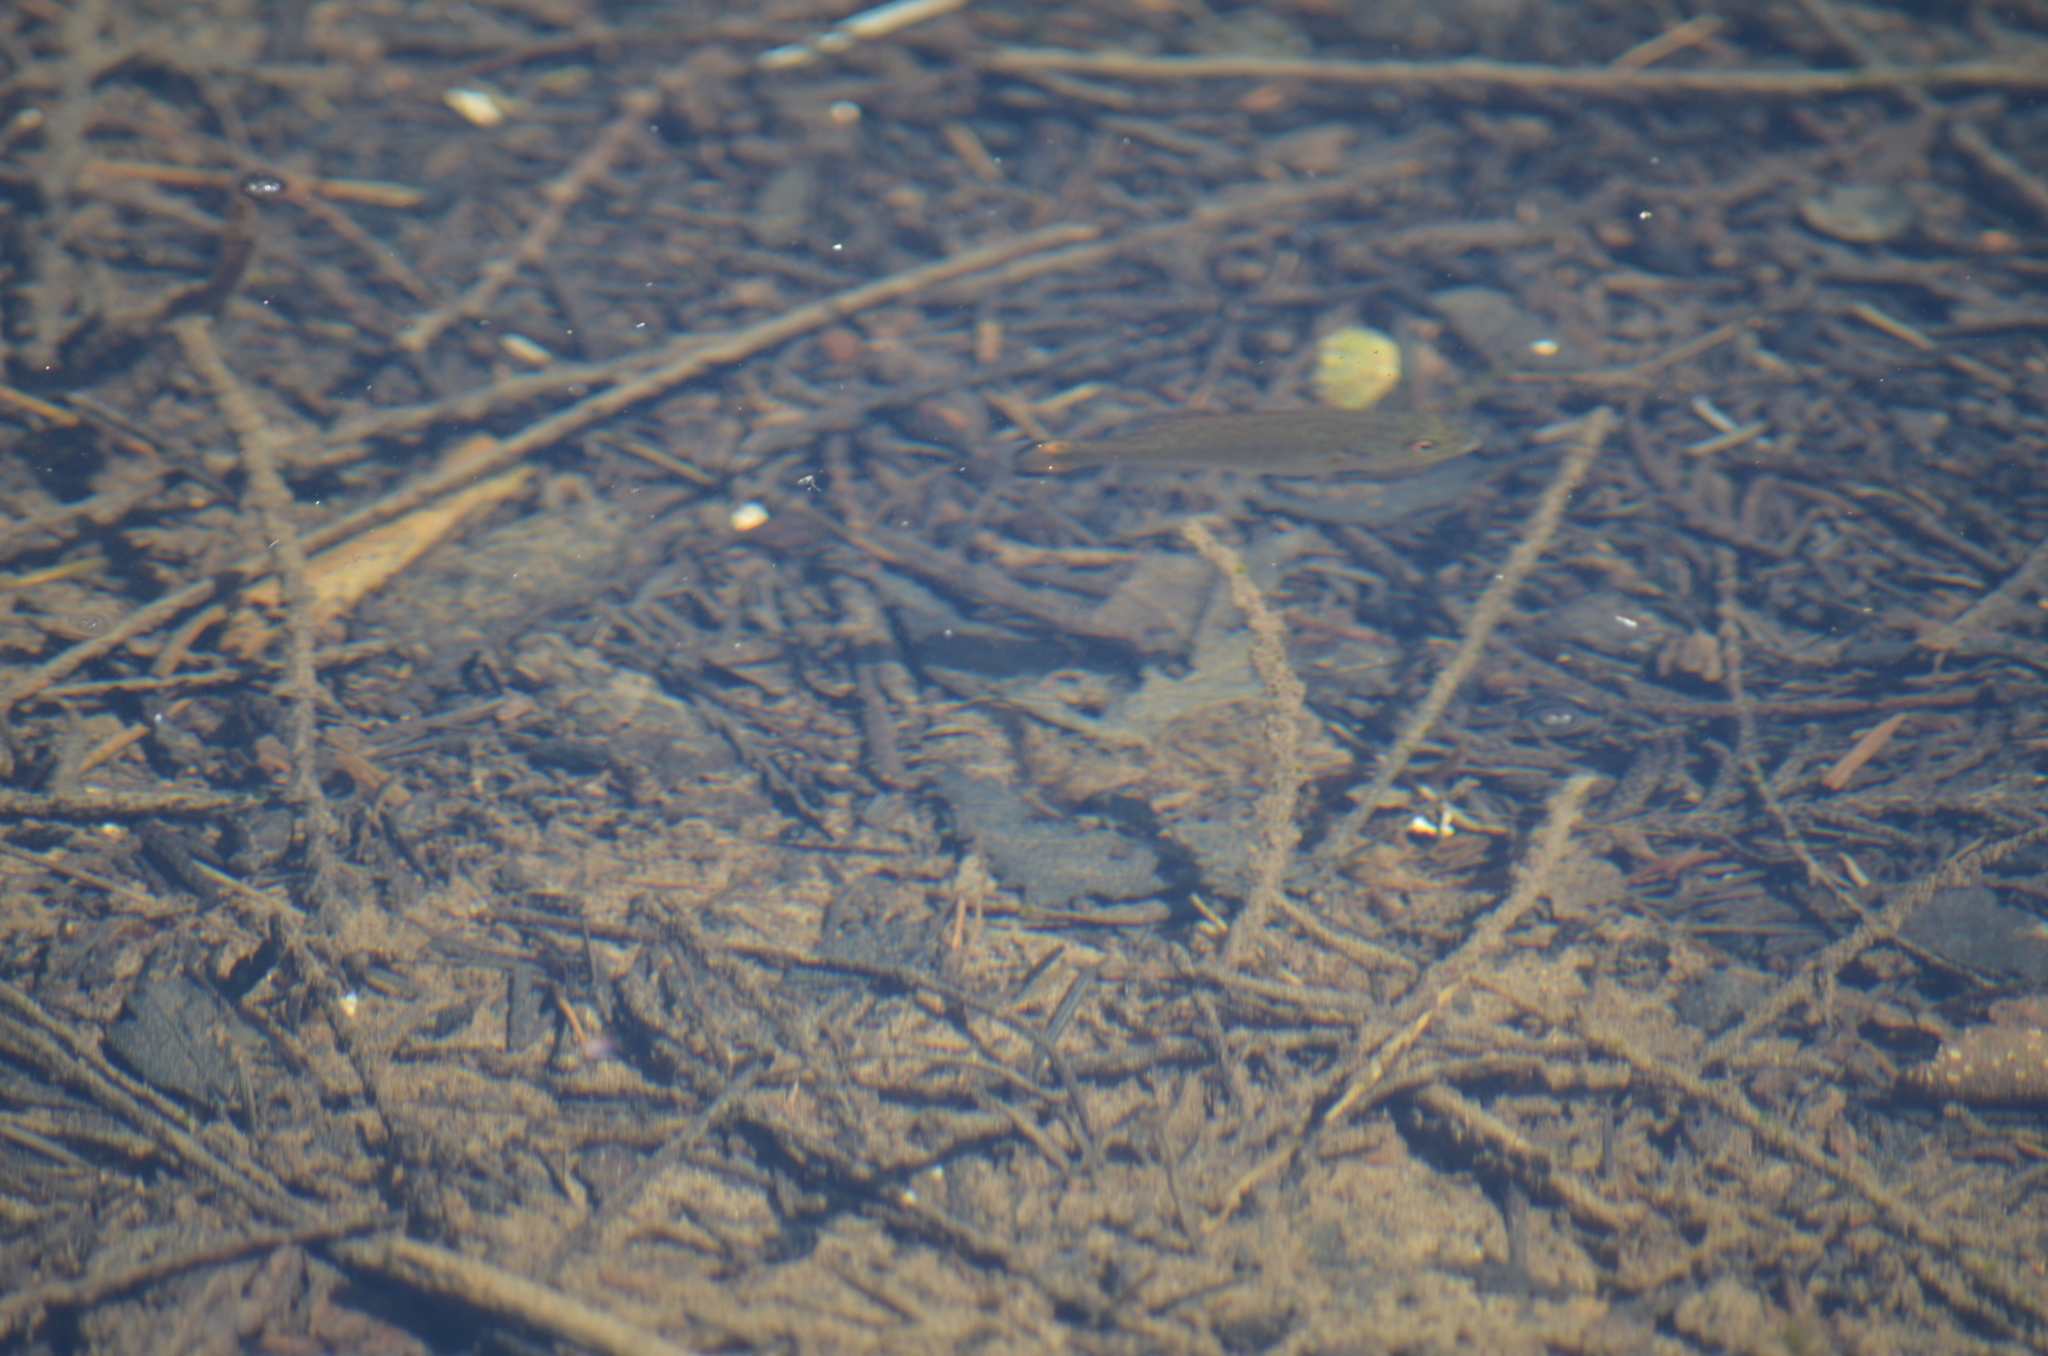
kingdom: Animalia
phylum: Chordata
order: Perciformes
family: Centrarchidae
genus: Micropterus
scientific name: Micropterus dolomieu
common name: Smallmouth bass
